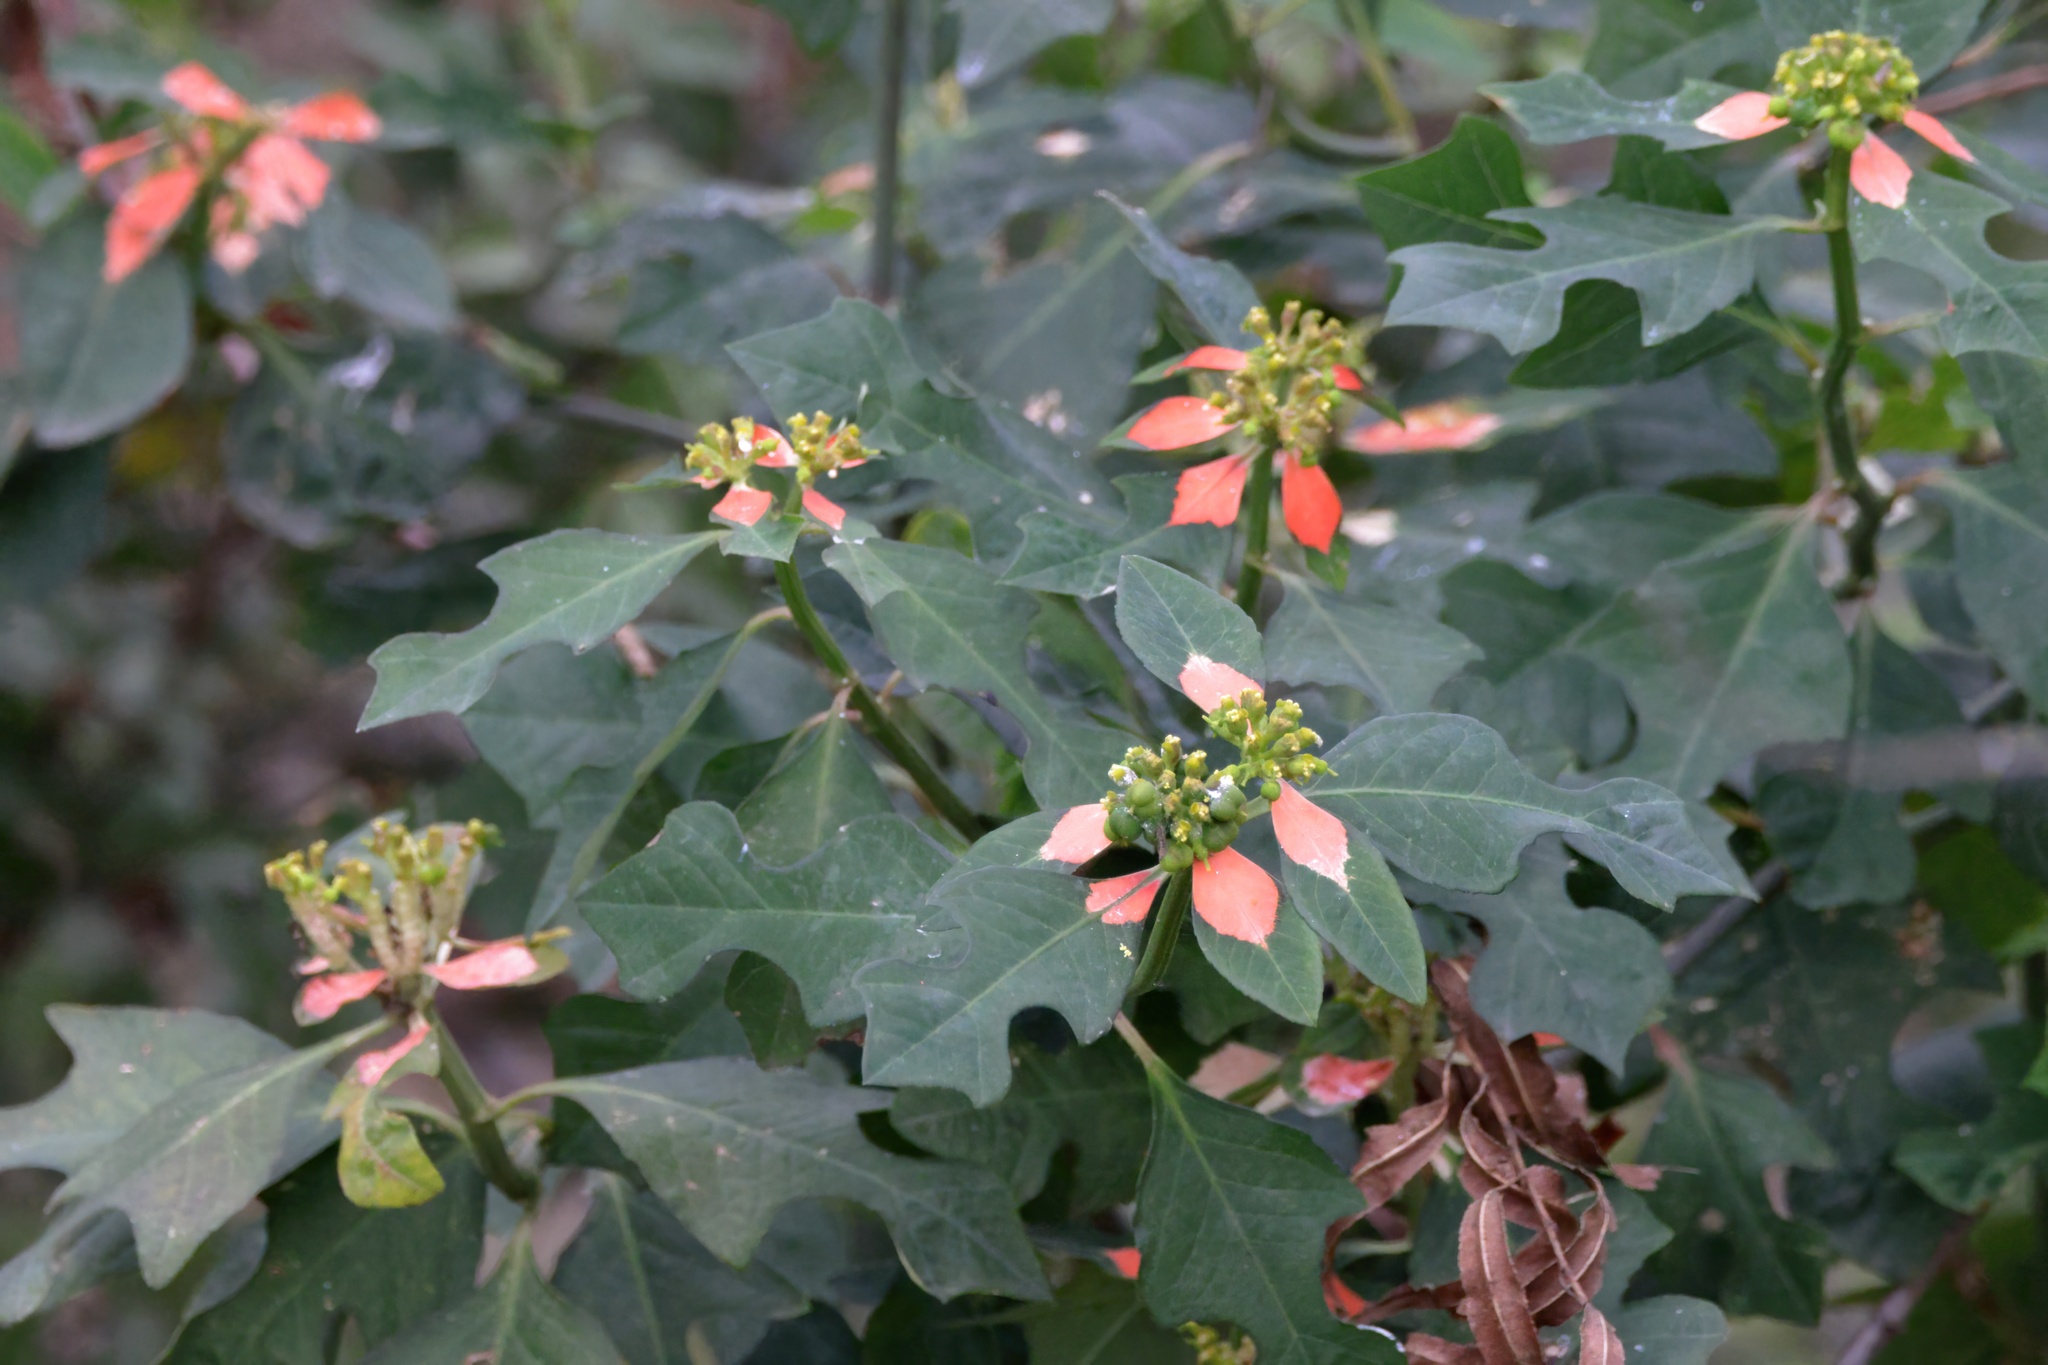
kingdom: Plantae
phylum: Tracheophyta
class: Magnoliopsida
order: Malpighiales
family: Euphorbiaceae
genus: Euphorbia
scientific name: Euphorbia heterophylla
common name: Mexican fireplant
